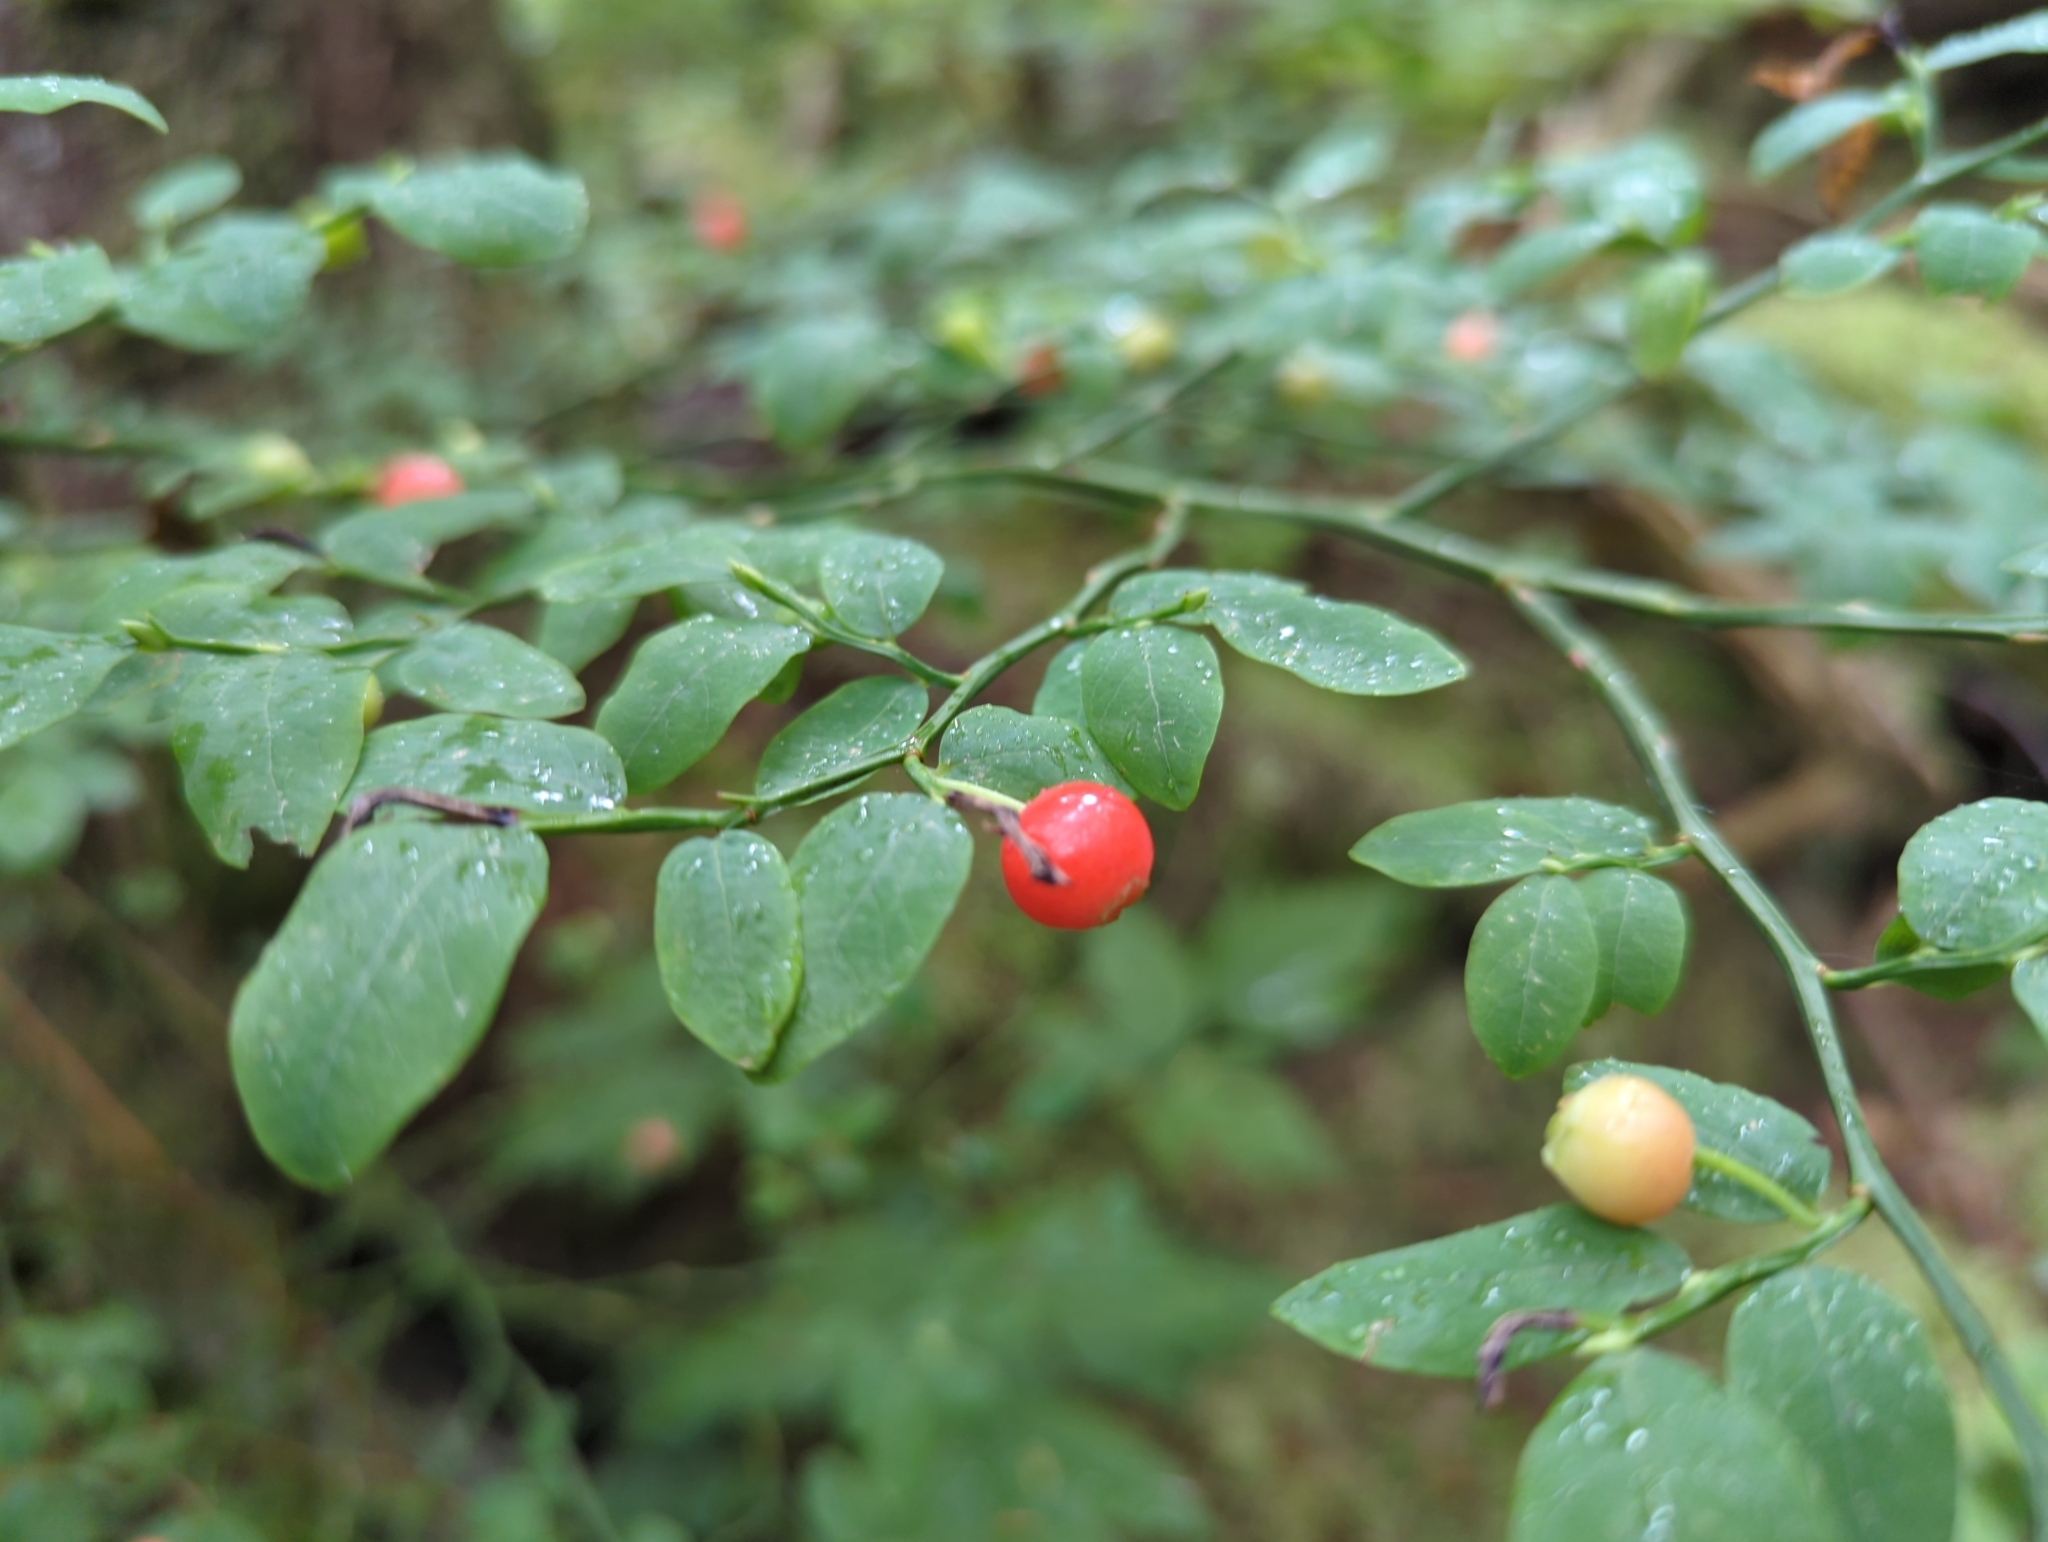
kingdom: Plantae
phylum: Tracheophyta
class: Magnoliopsida
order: Ericales
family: Ericaceae
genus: Vaccinium
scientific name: Vaccinium parvifolium
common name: Red-huckleberry
